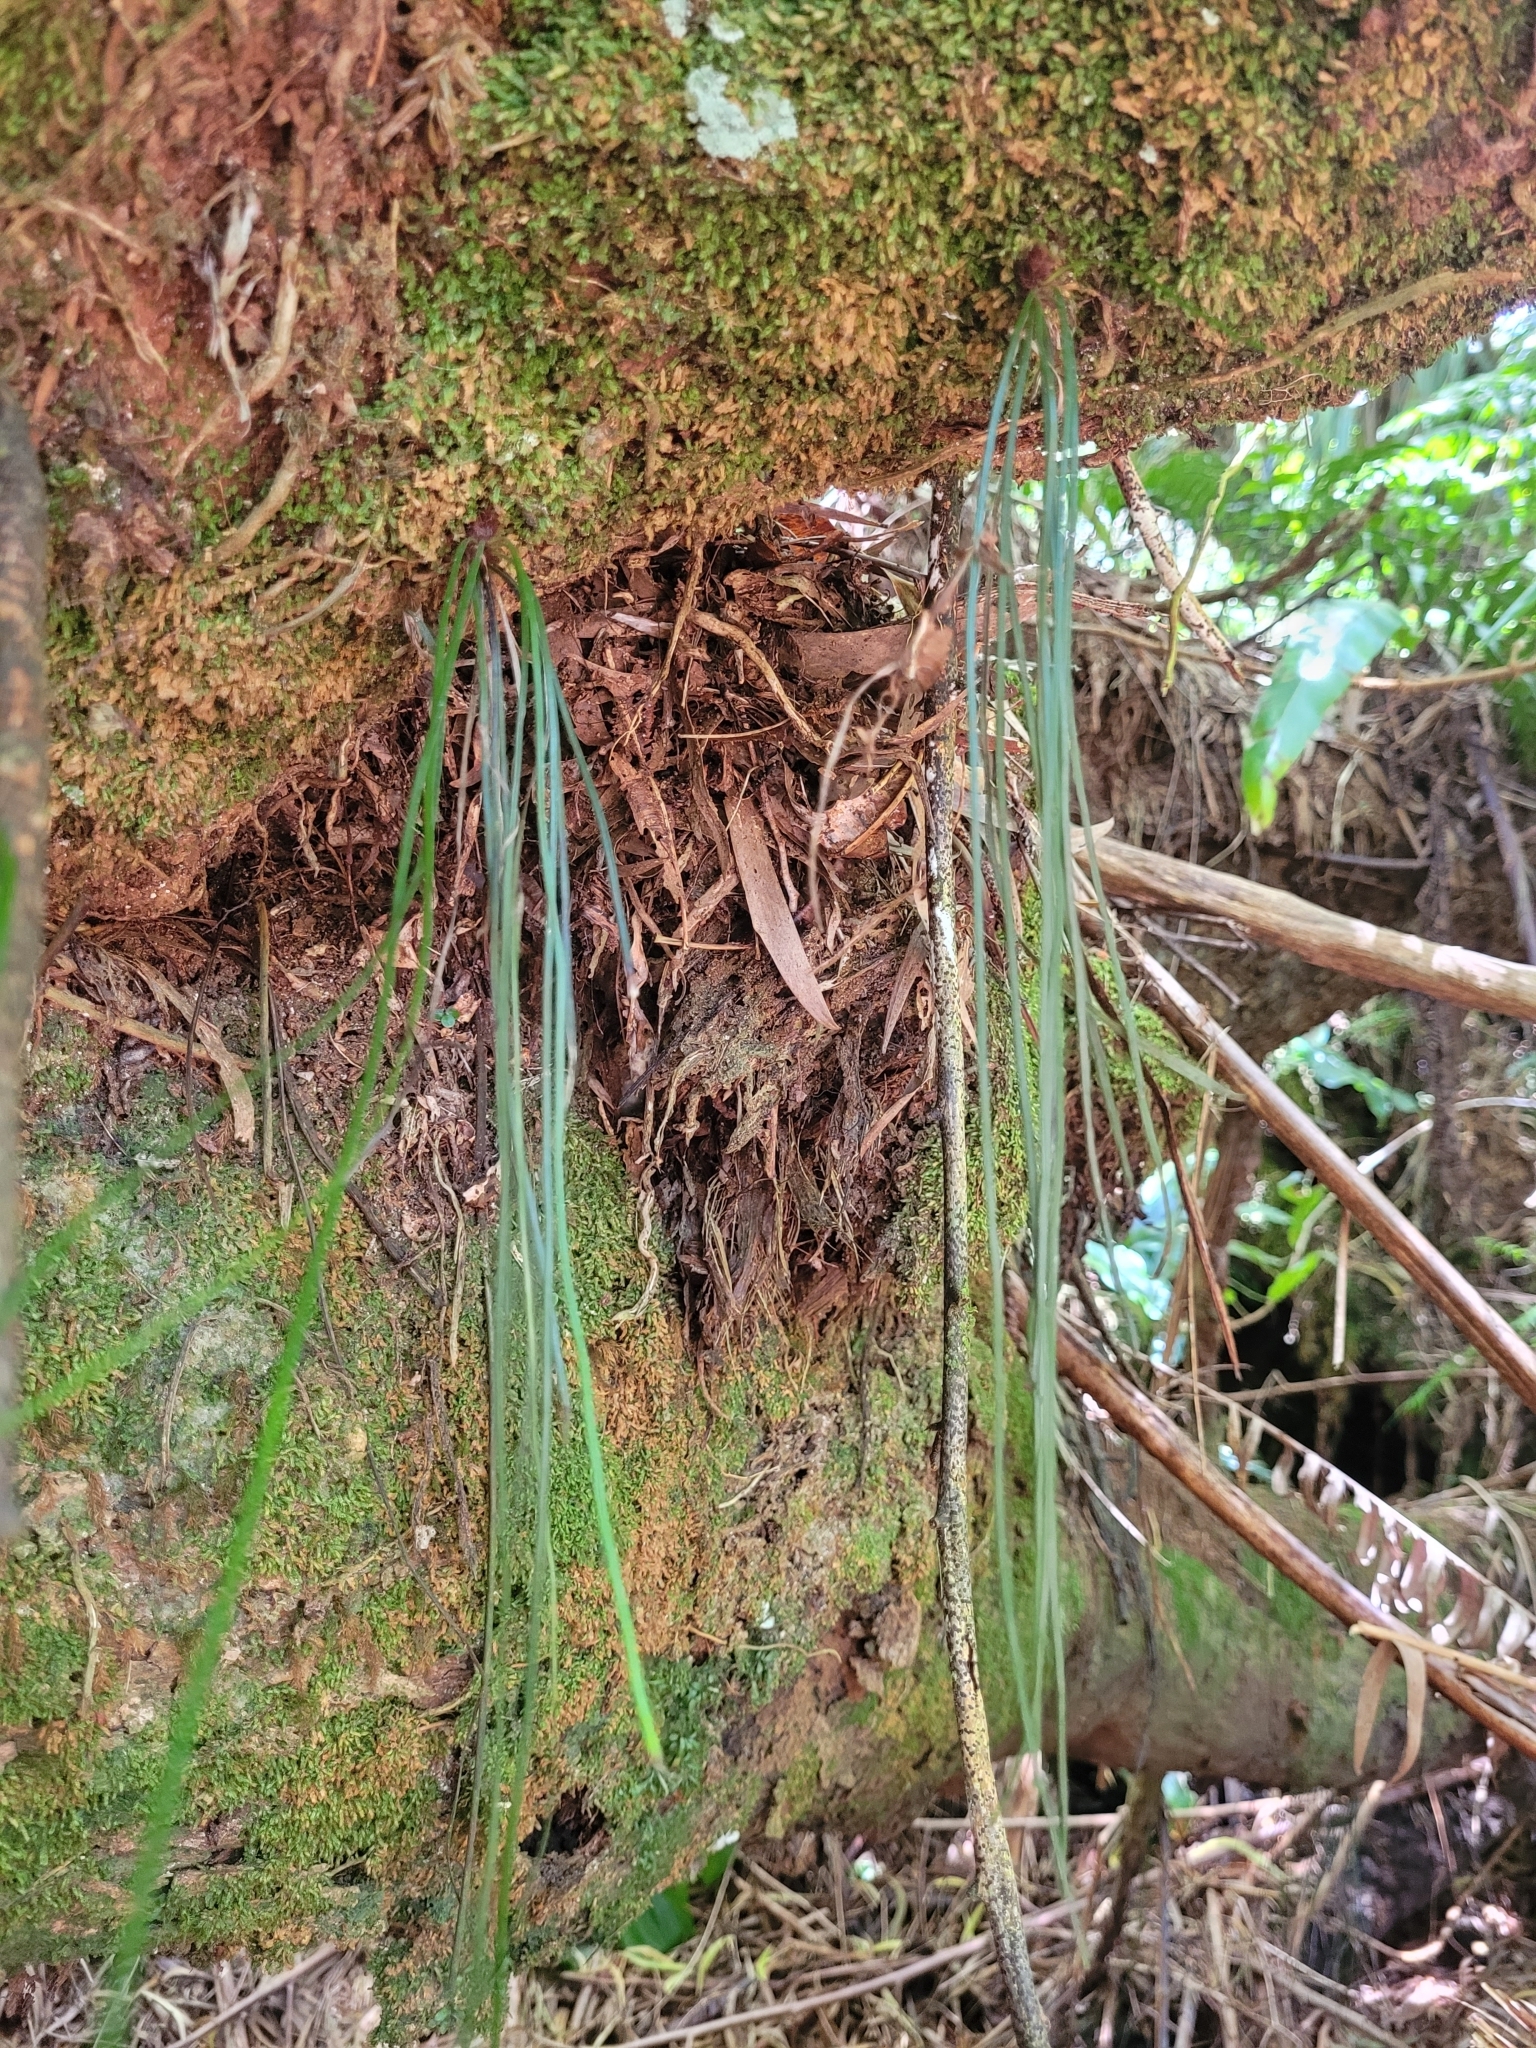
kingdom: Plantae
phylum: Tracheophyta
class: Polypodiopsida
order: Polypodiales
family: Pteridaceae
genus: Vittaria
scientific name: Vittaria isoetifolia
